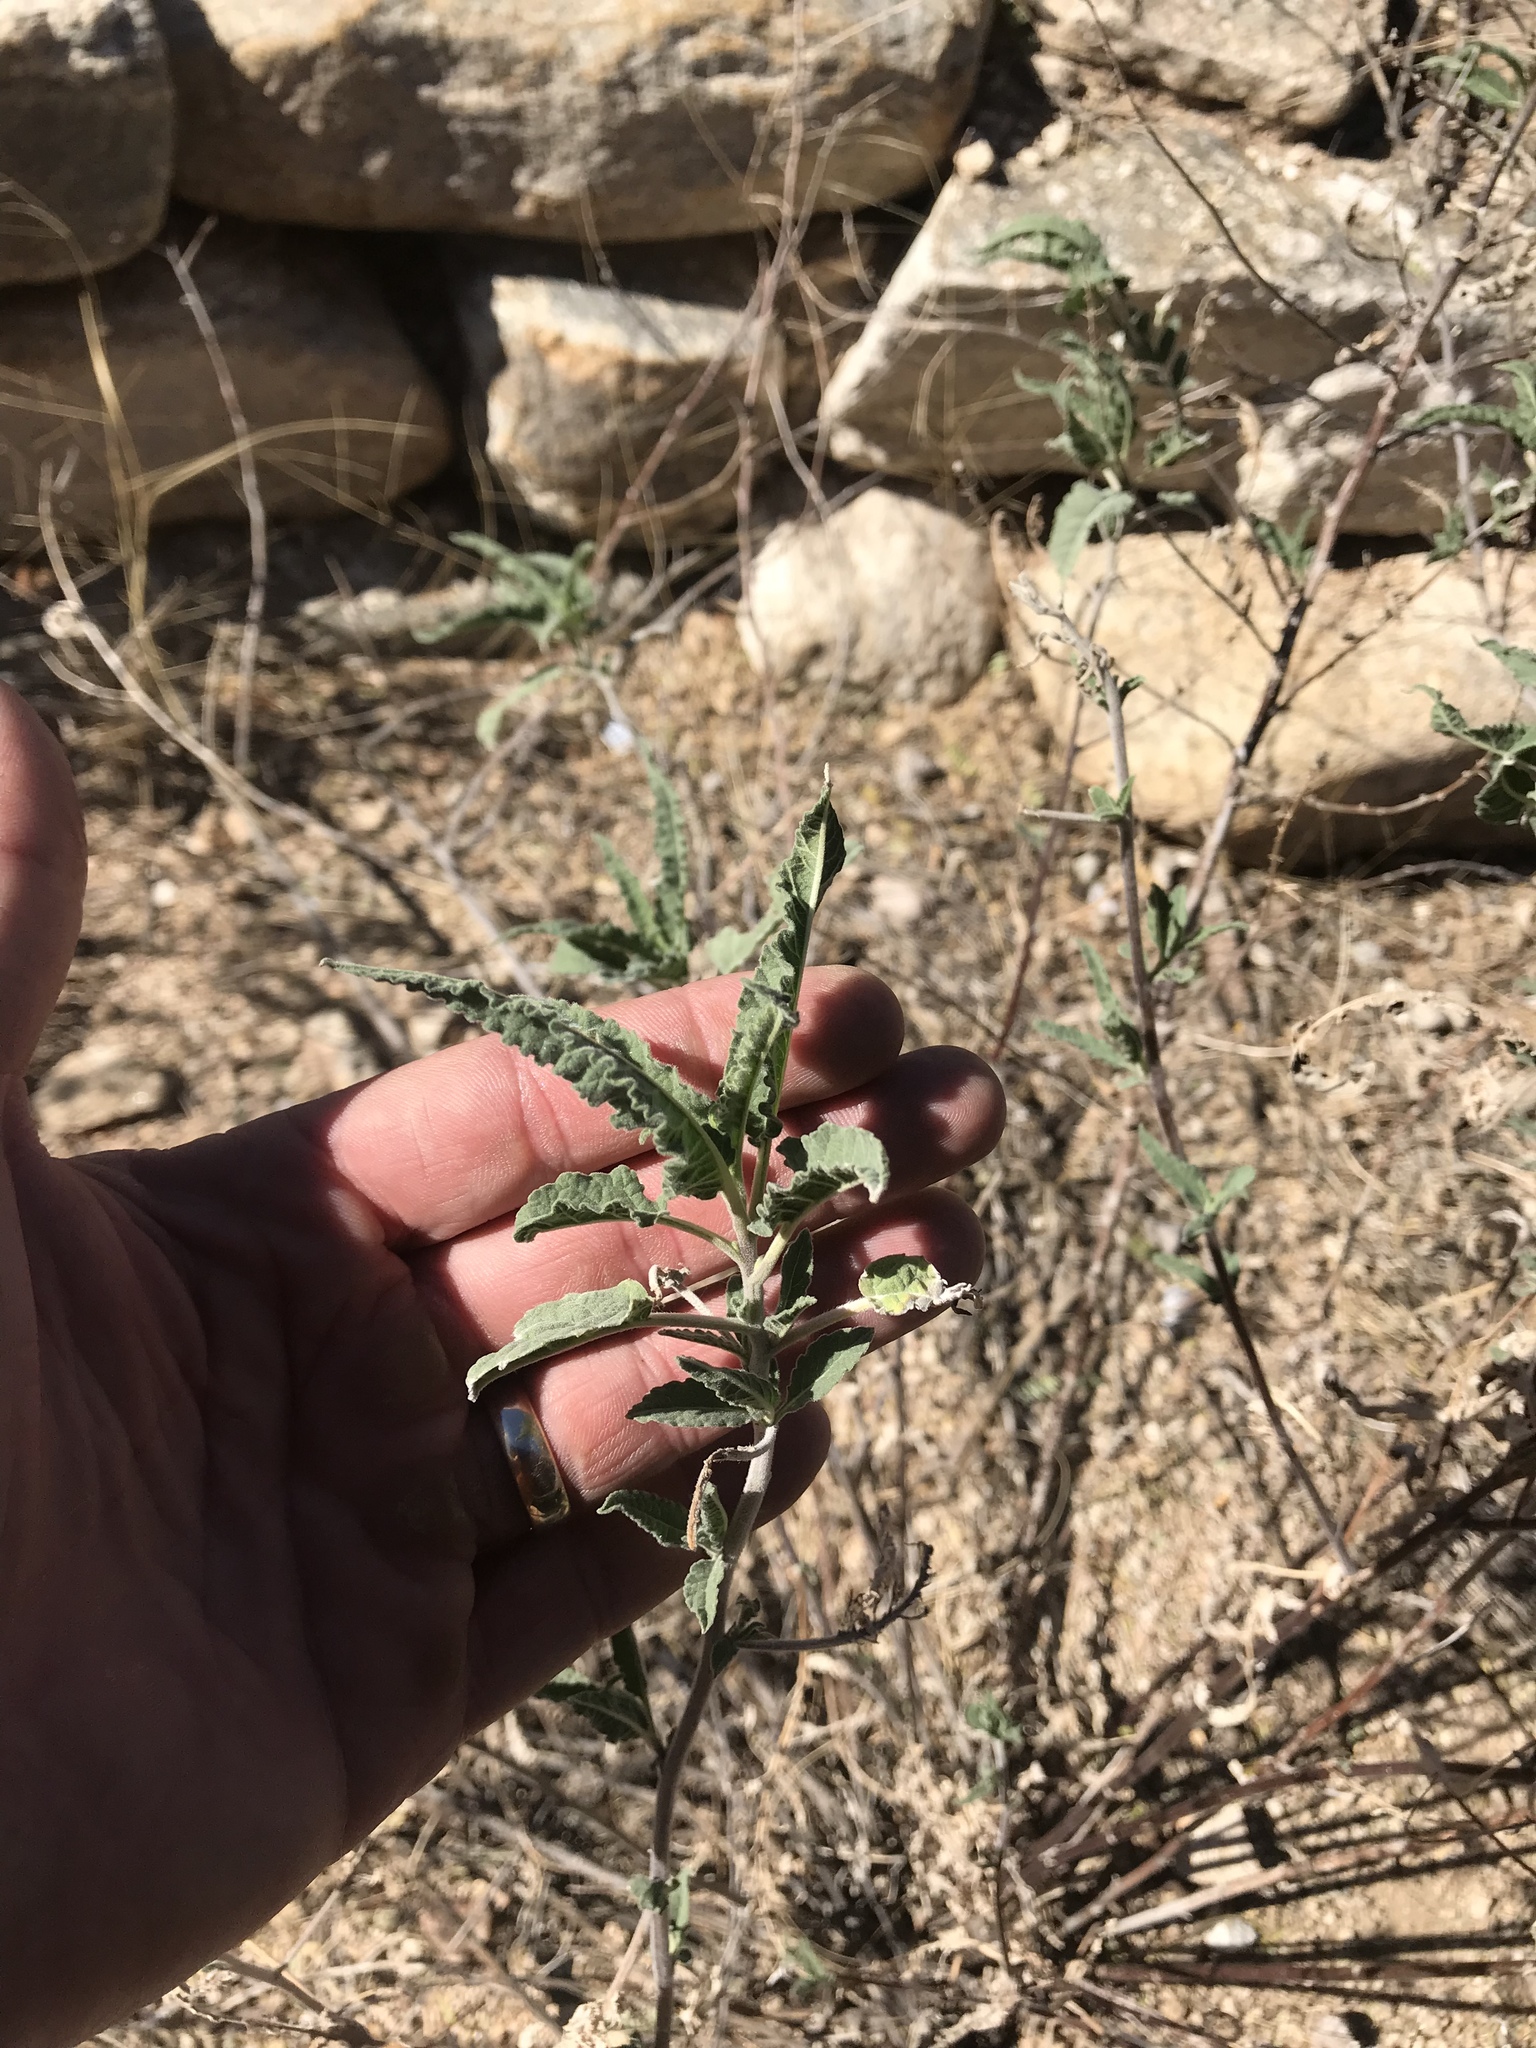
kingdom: Plantae
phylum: Tracheophyta
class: Magnoliopsida
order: Asterales
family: Asteraceae
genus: Ambrosia
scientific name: Ambrosia ambrosioides
